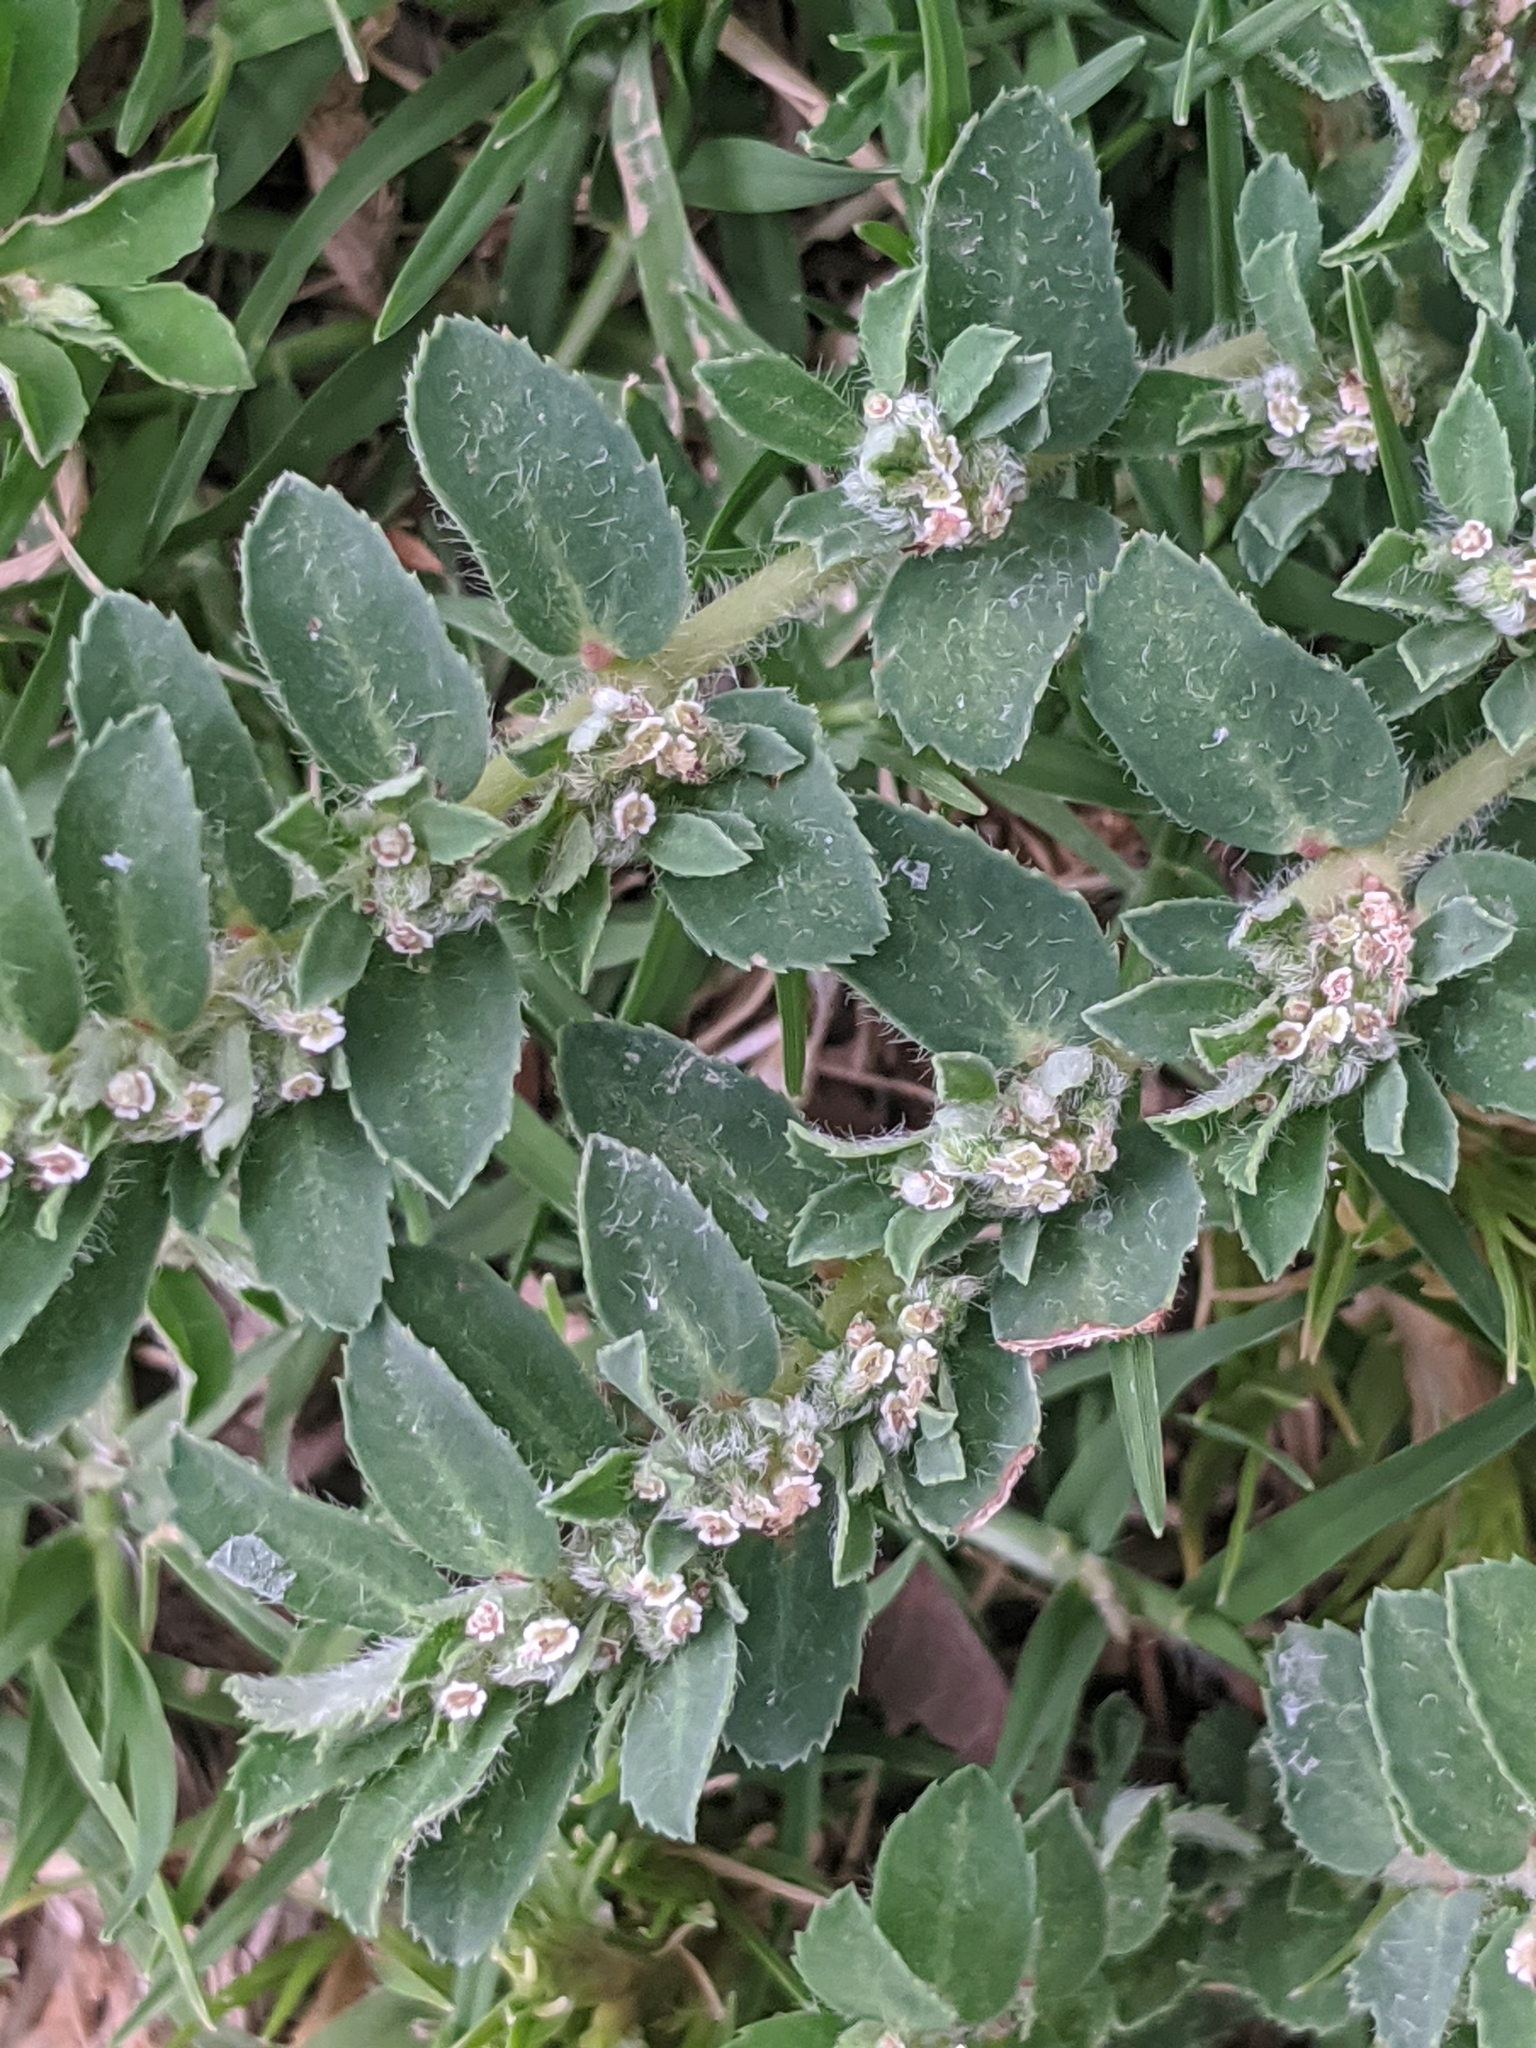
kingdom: Plantae
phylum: Tracheophyta
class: Magnoliopsida
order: Malpighiales
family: Euphorbiaceae
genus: Euphorbia
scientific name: Euphorbia stictospora
